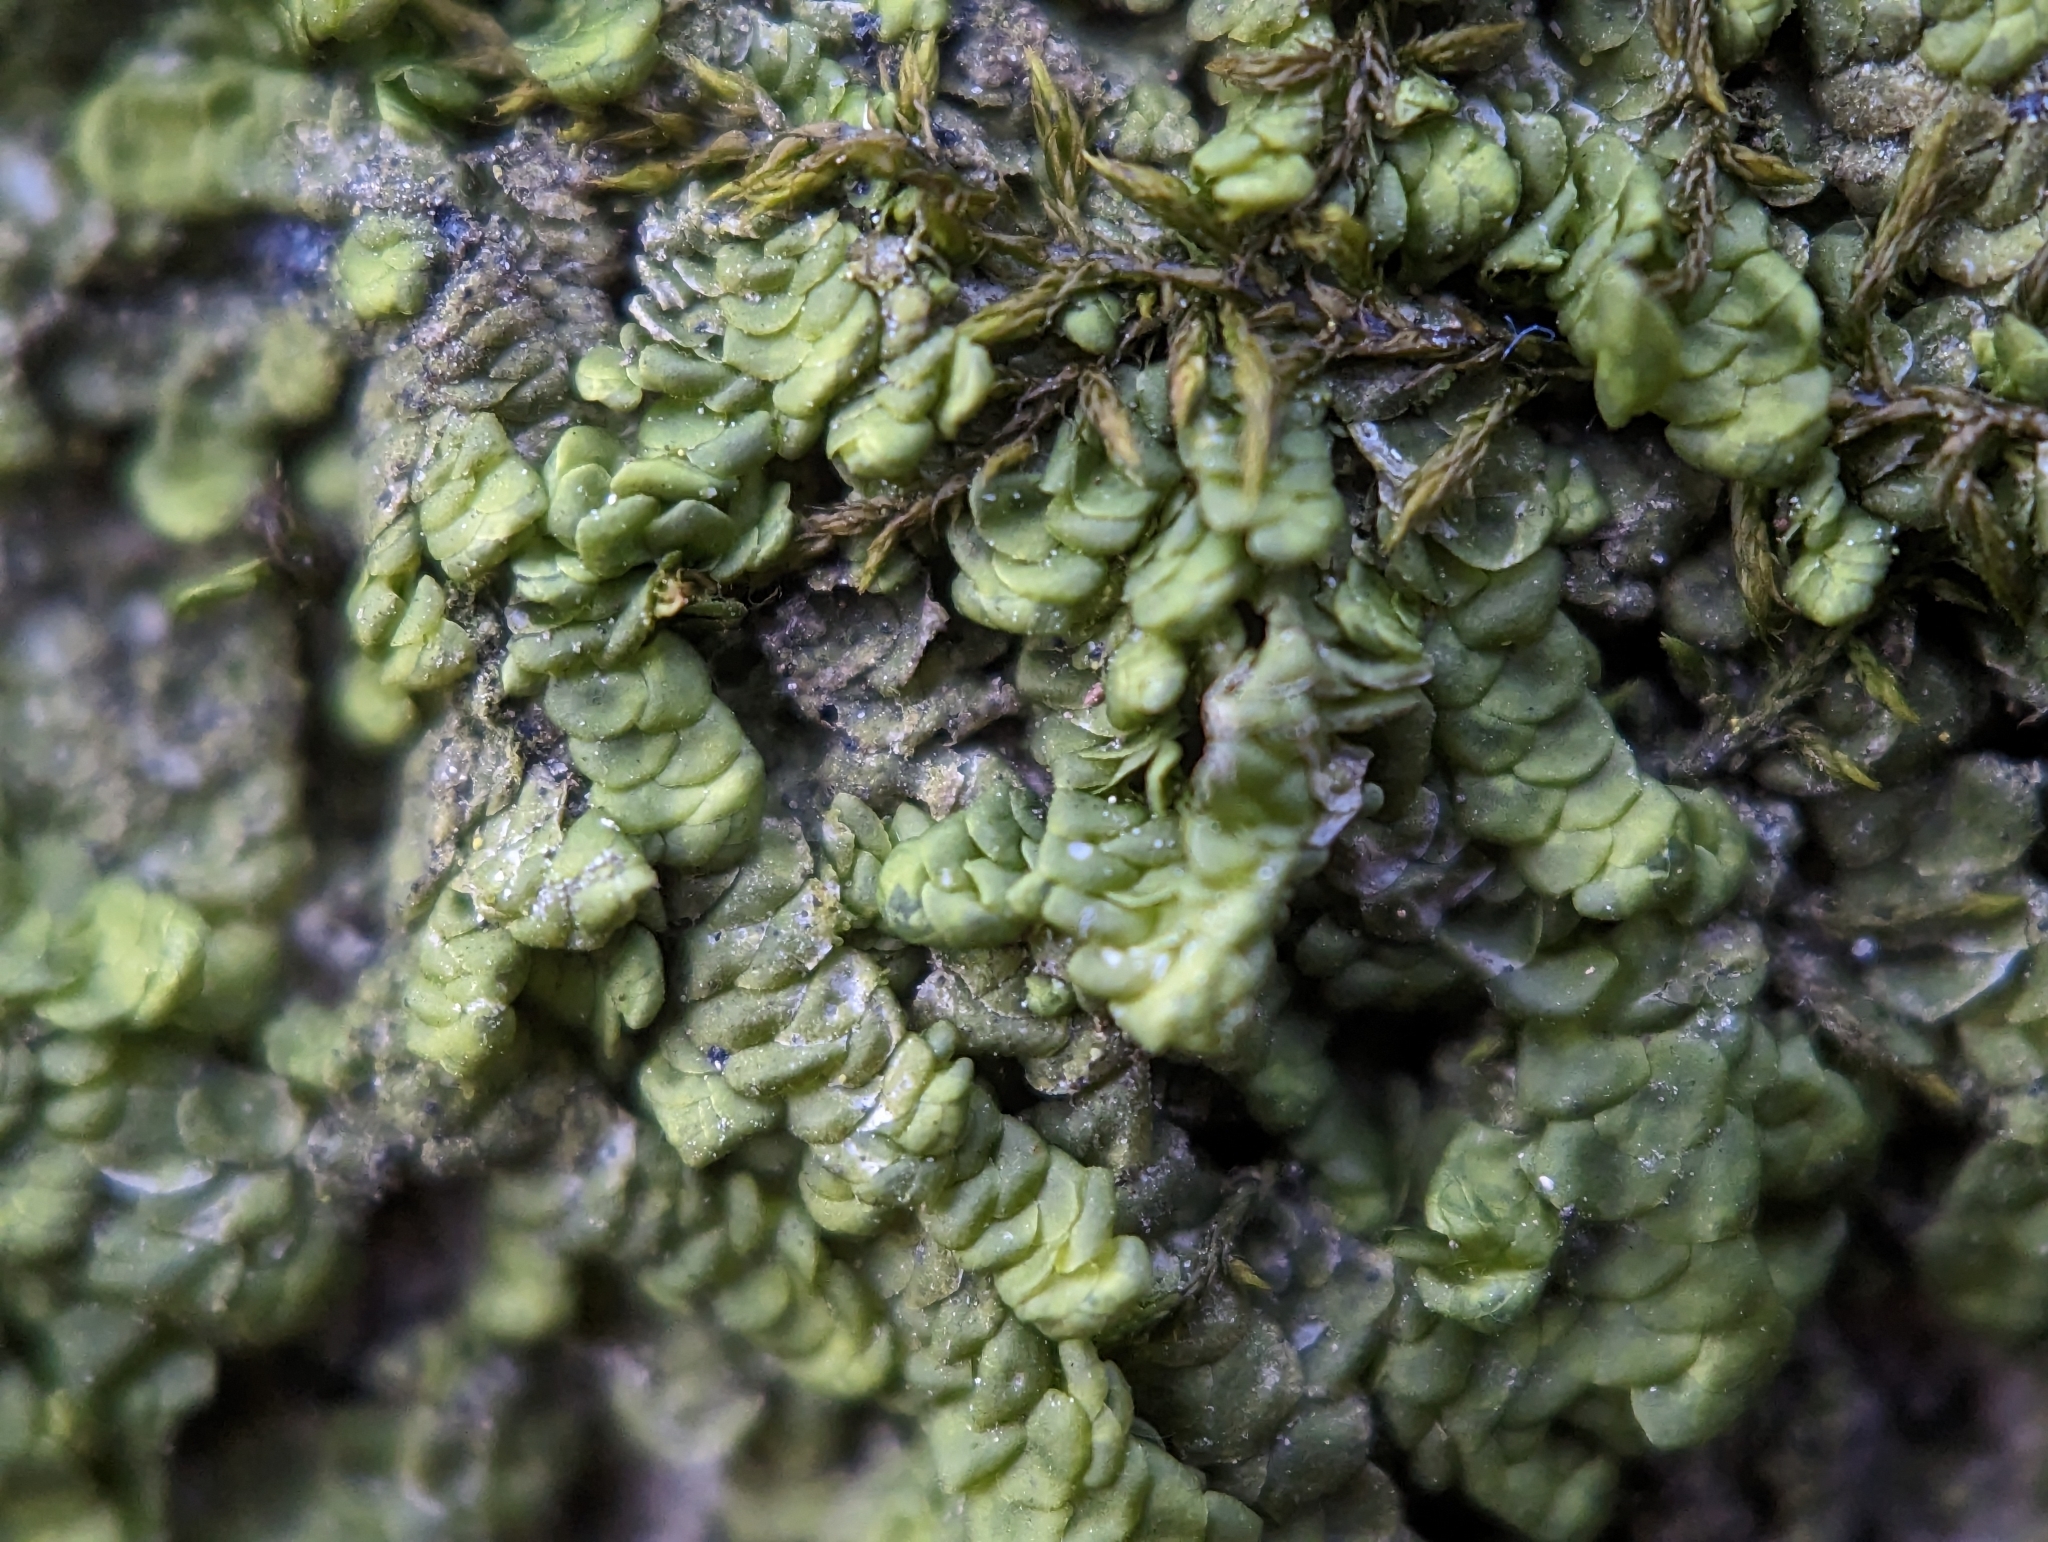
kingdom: Plantae
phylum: Marchantiophyta
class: Jungermanniopsida
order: Porellales
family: Radulaceae
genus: Radula
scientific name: Radula complanata
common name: Flat-leaved scalewort
